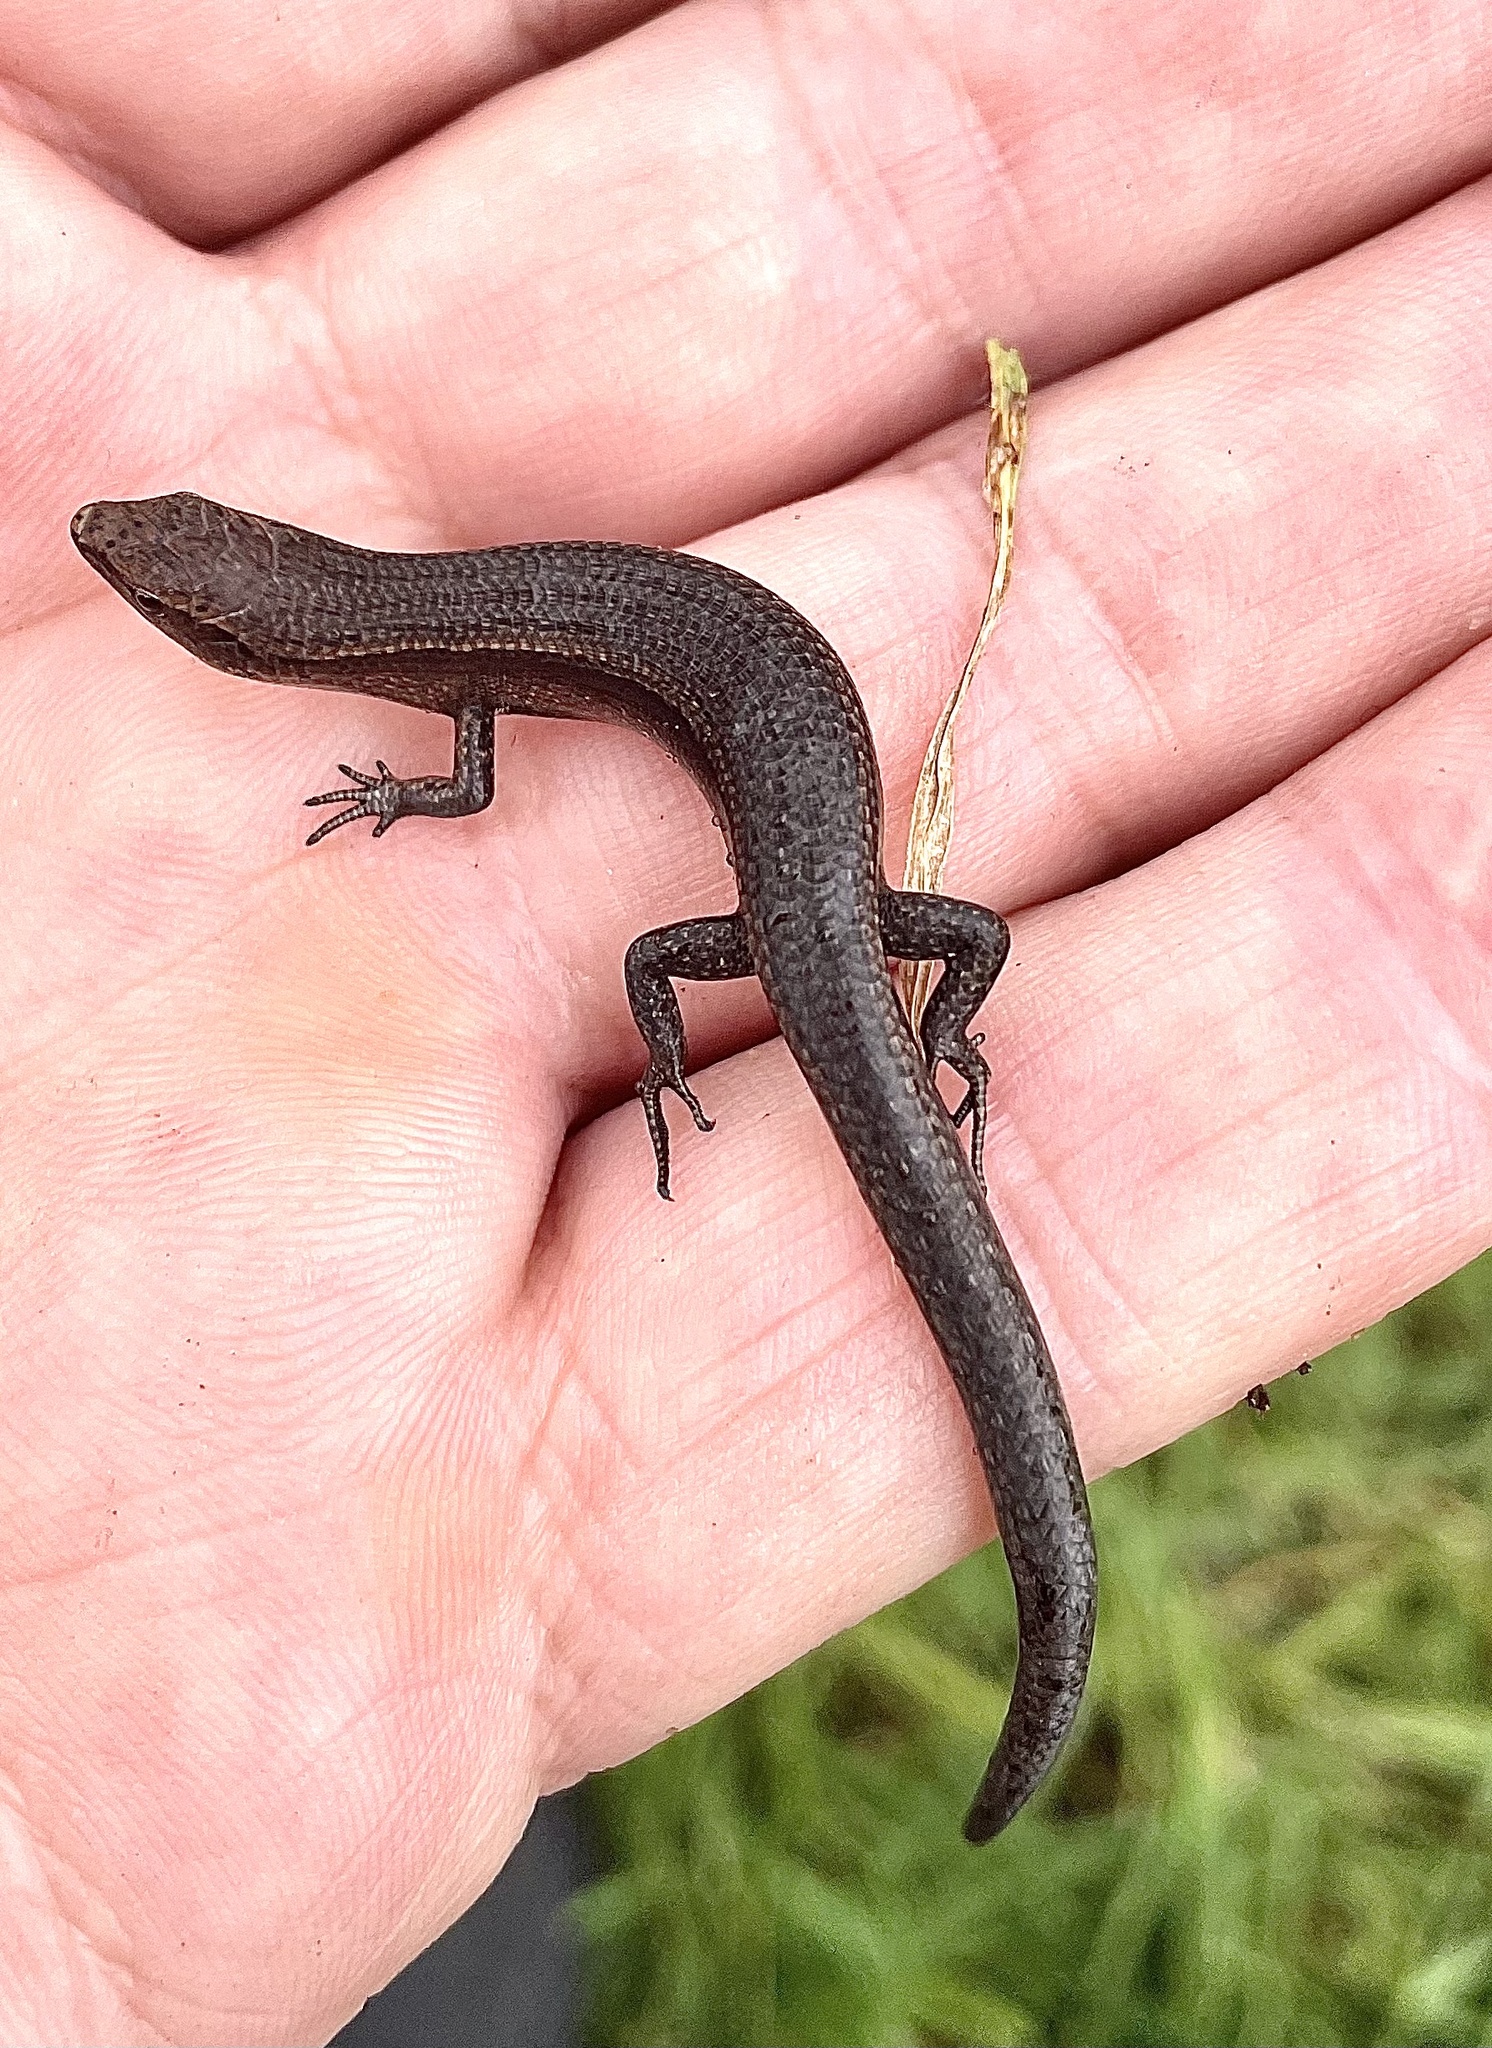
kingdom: Animalia
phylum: Chordata
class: Squamata
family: Scincidae
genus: Lampropholis
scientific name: Lampropholis delicata
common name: Plague skink
